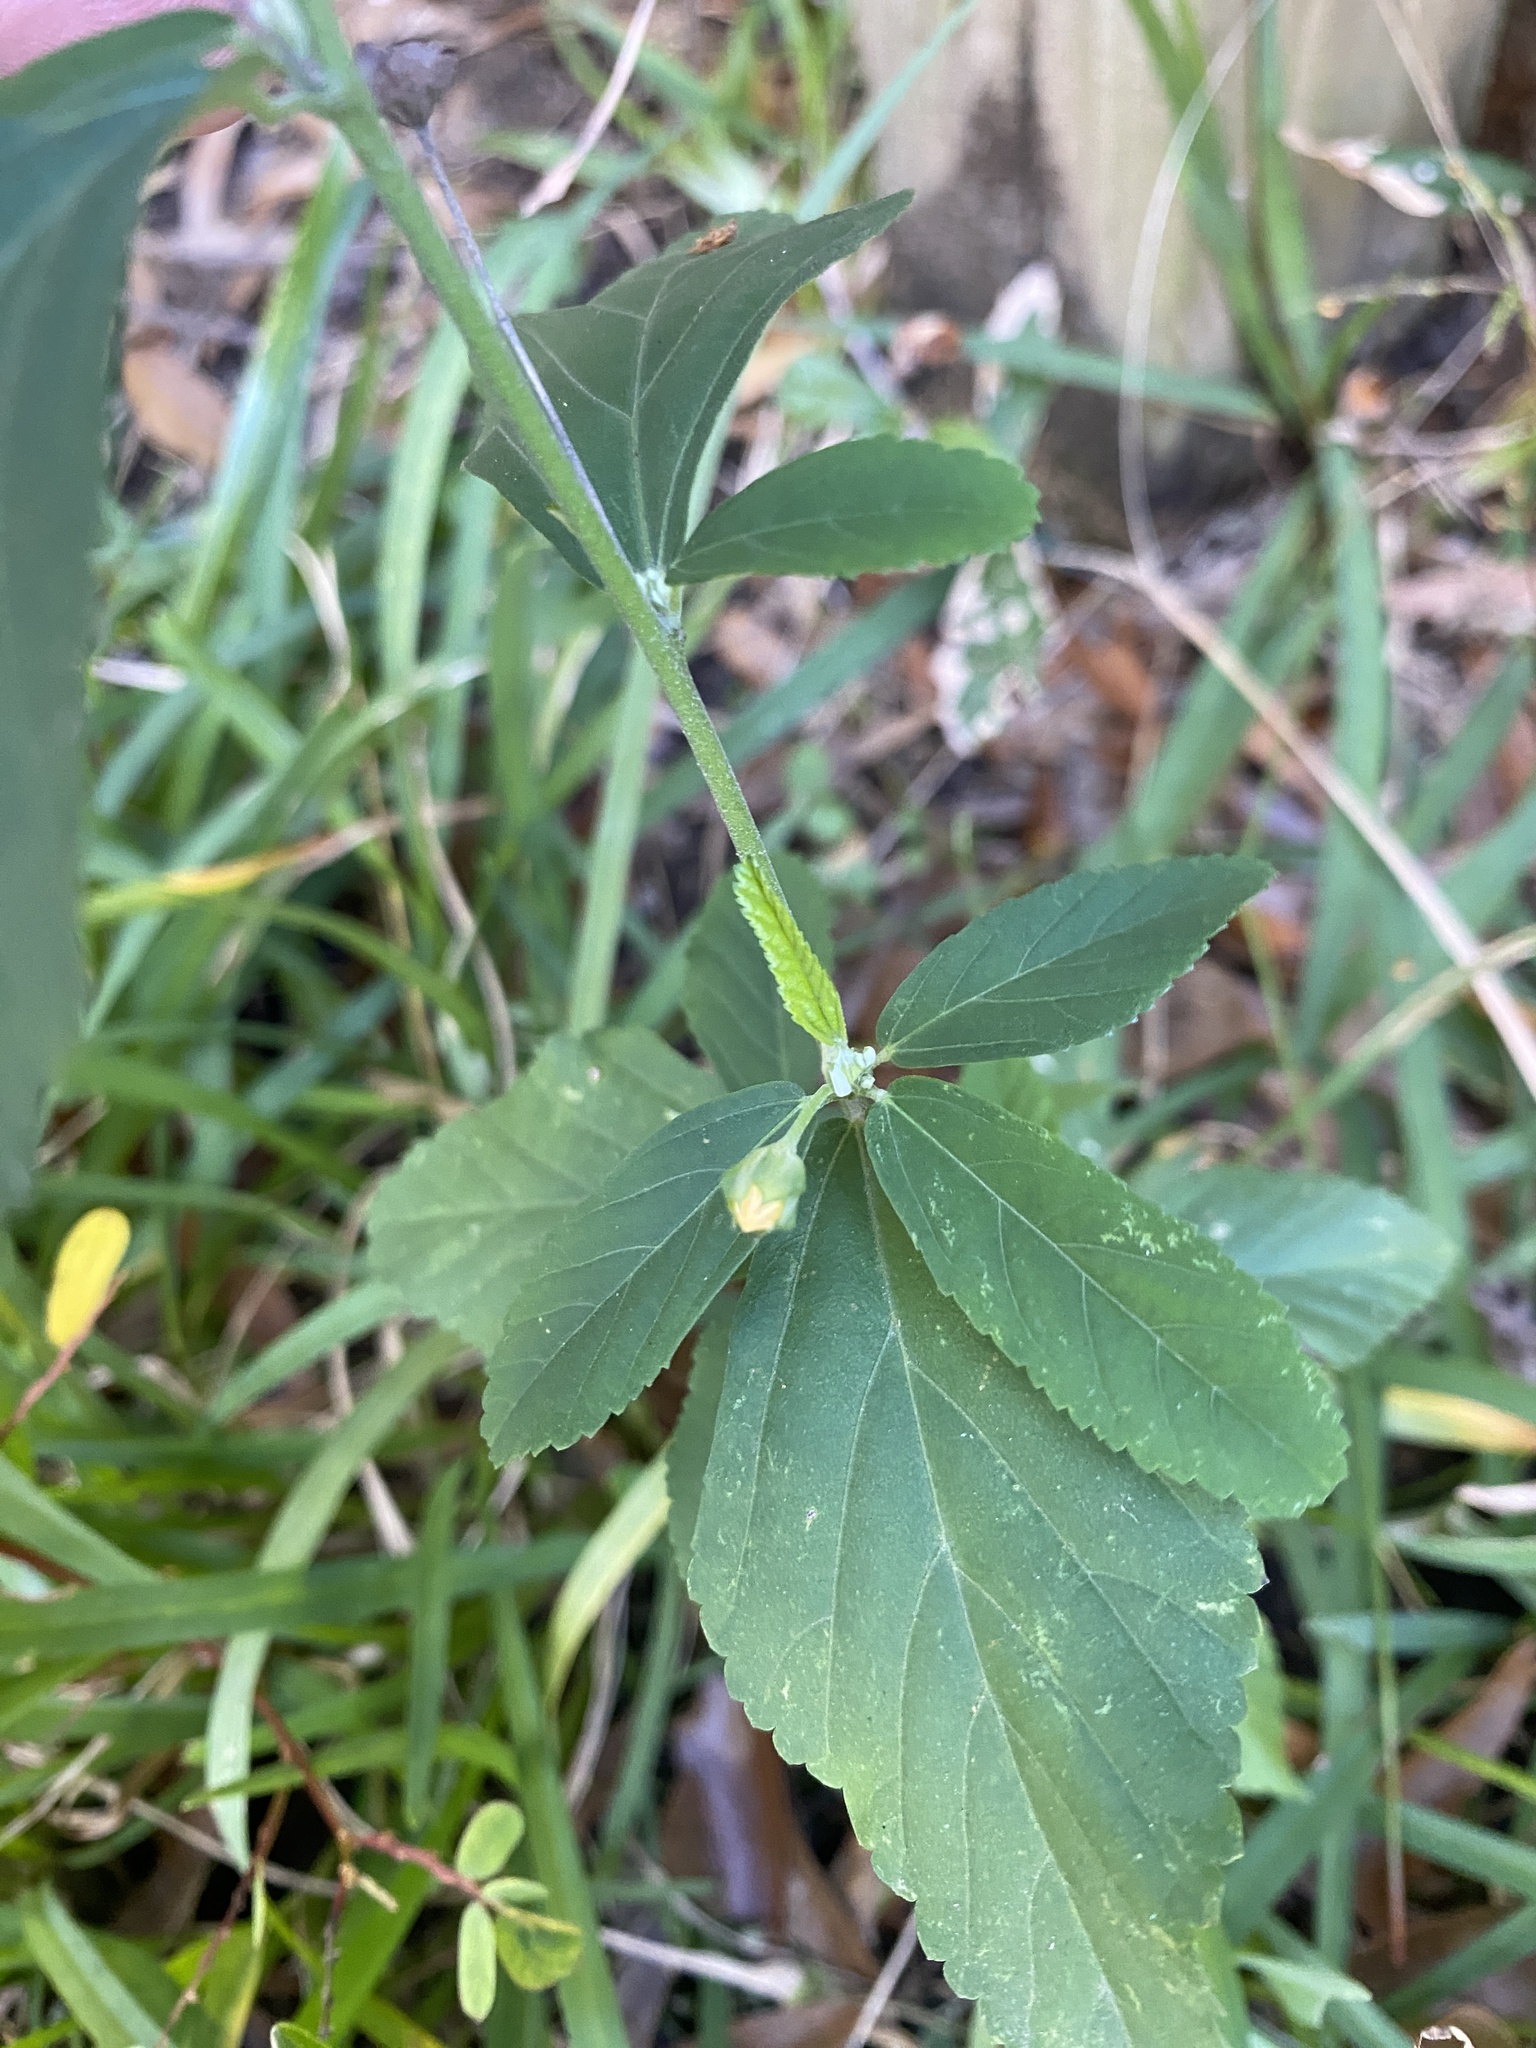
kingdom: Plantae
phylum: Tracheophyta
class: Magnoliopsida
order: Malvales
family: Malvaceae
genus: Sida
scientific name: Sida rhombifolia
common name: Queensland-hemp
